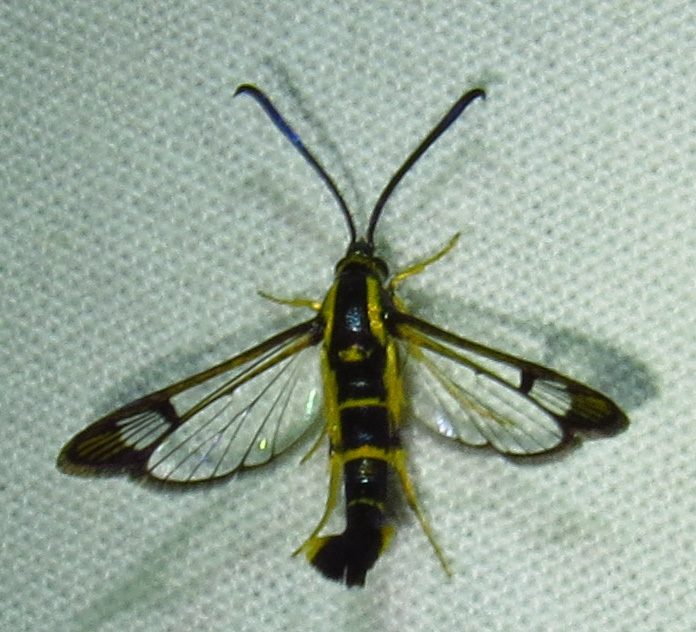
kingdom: Animalia
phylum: Arthropoda
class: Insecta
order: Lepidoptera
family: Sesiidae
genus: Synanthedon
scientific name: Synanthedon scitula
